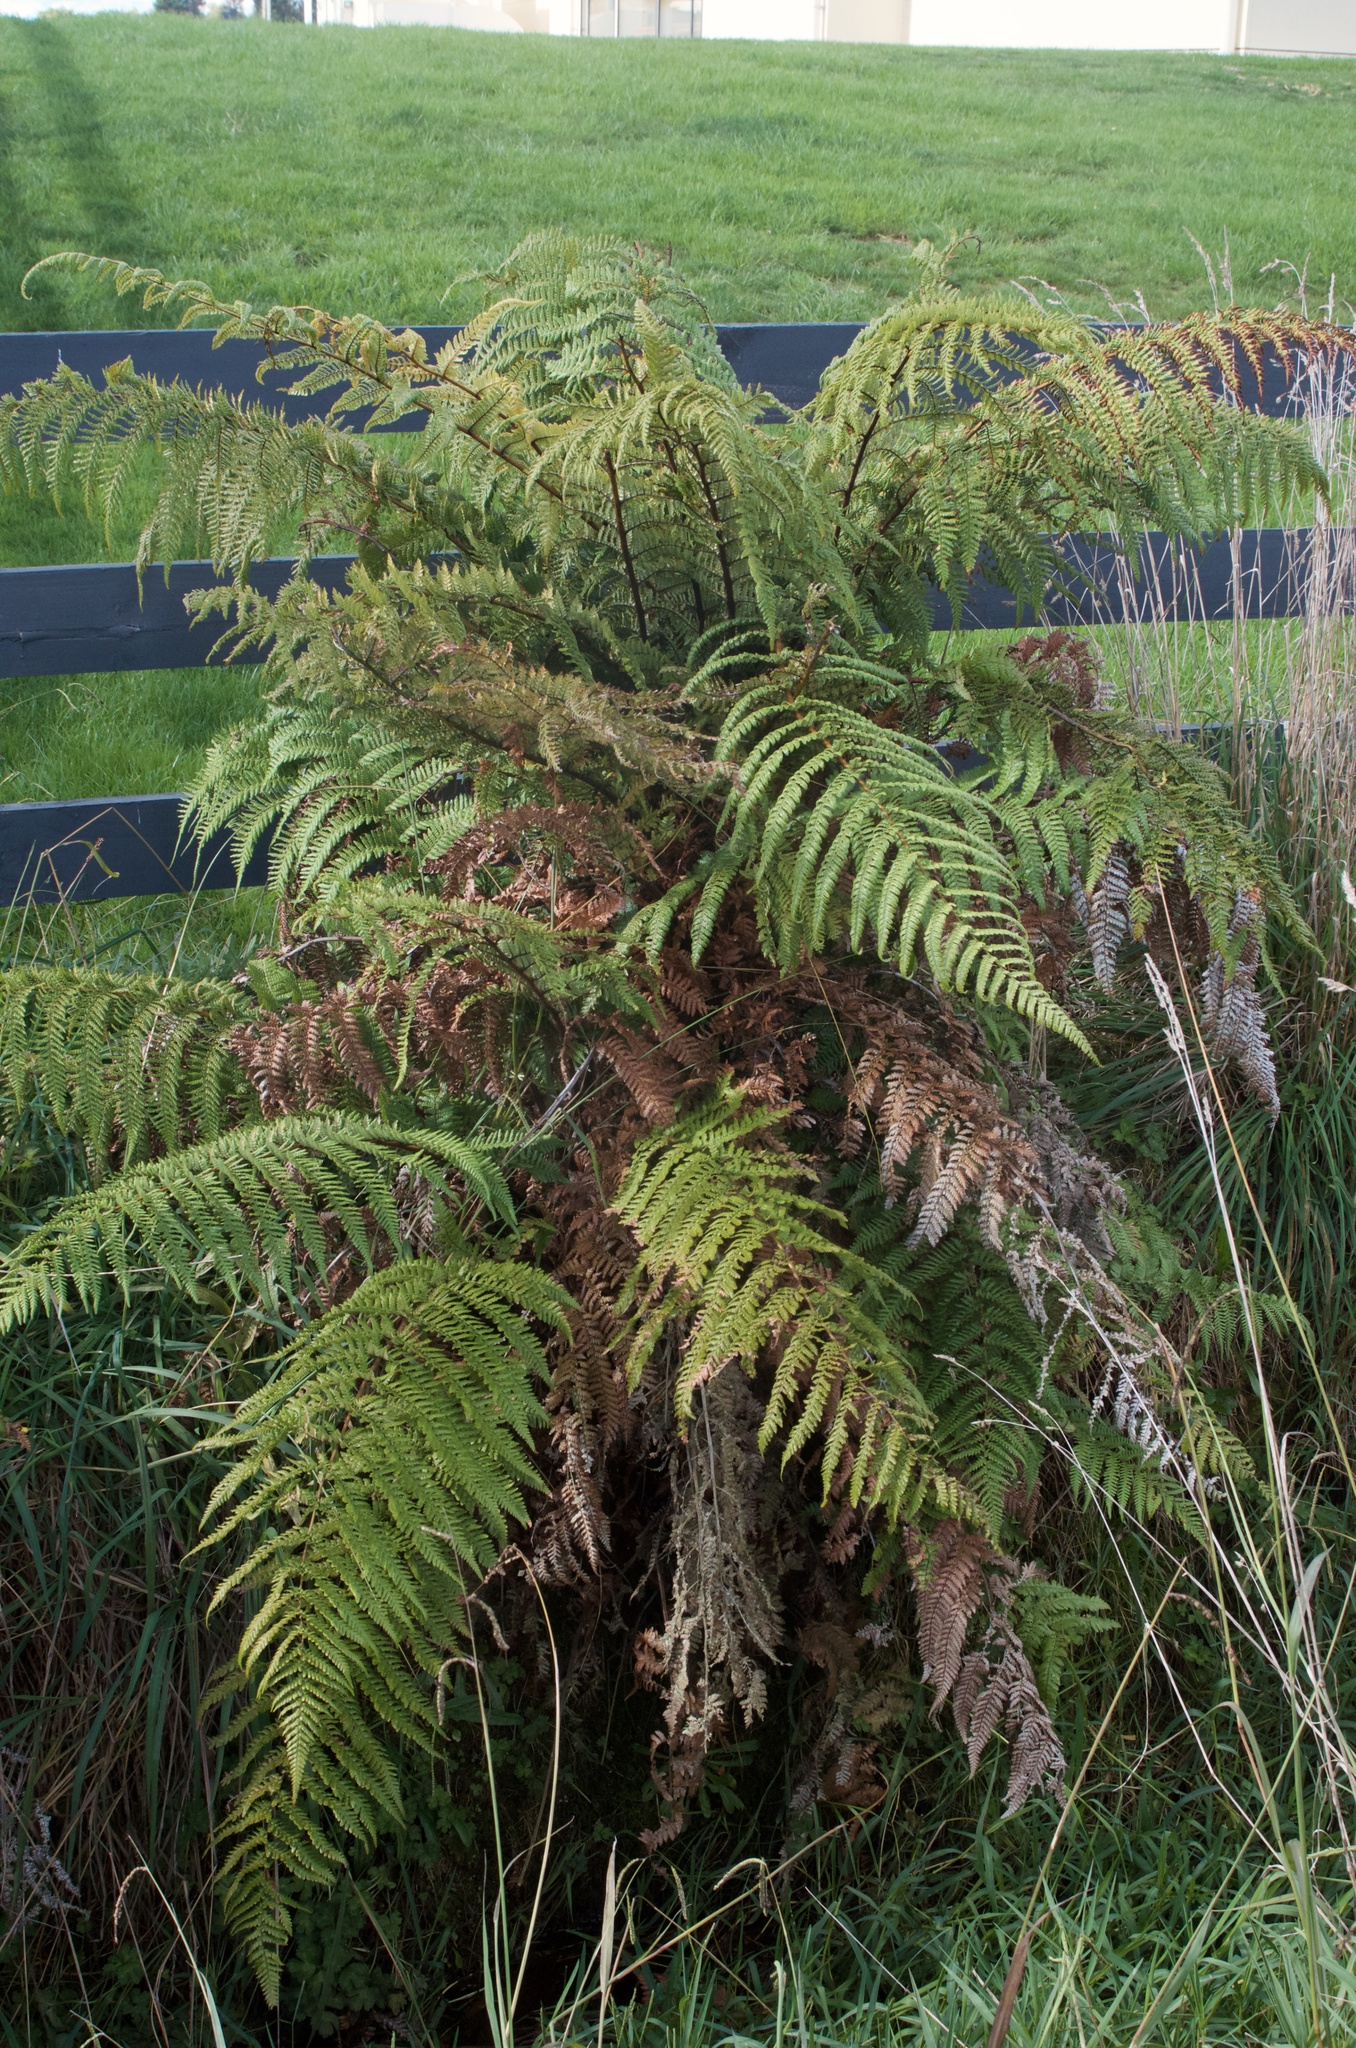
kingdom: Plantae
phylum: Tracheophyta
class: Polypodiopsida
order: Cyatheales
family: Dicksoniaceae
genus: Dicksonia
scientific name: Dicksonia squarrosa
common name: Hard treefern
